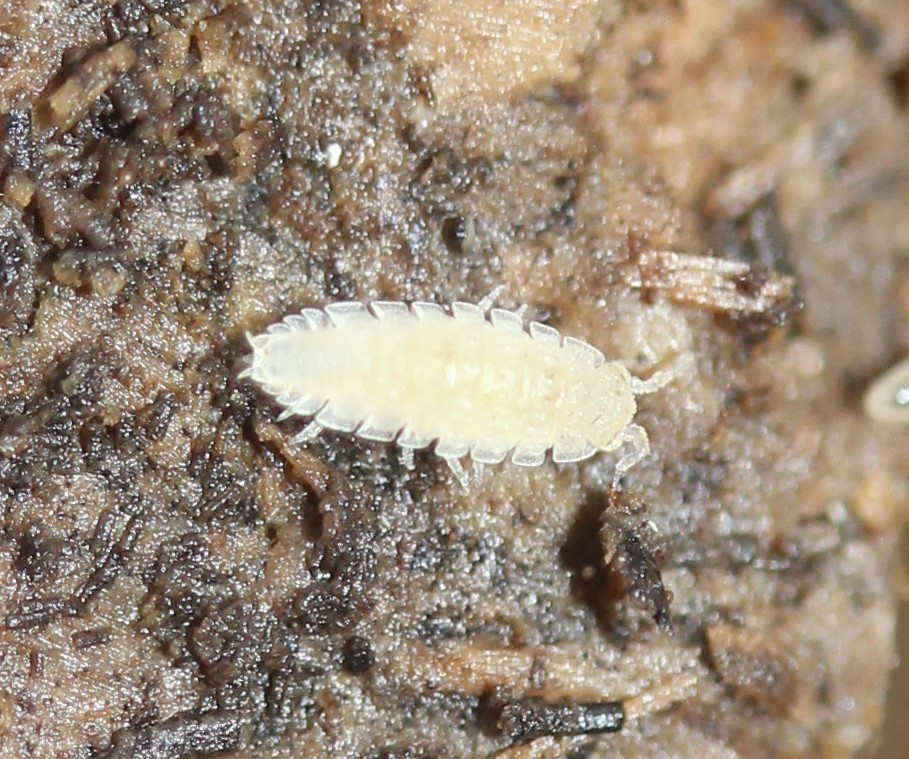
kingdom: Animalia
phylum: Arthropoda
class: Malacostraca
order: Isopoda
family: Trichoniscidae
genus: Haplophthalmus
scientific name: Haplophthalmus danicus
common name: Pillbug
